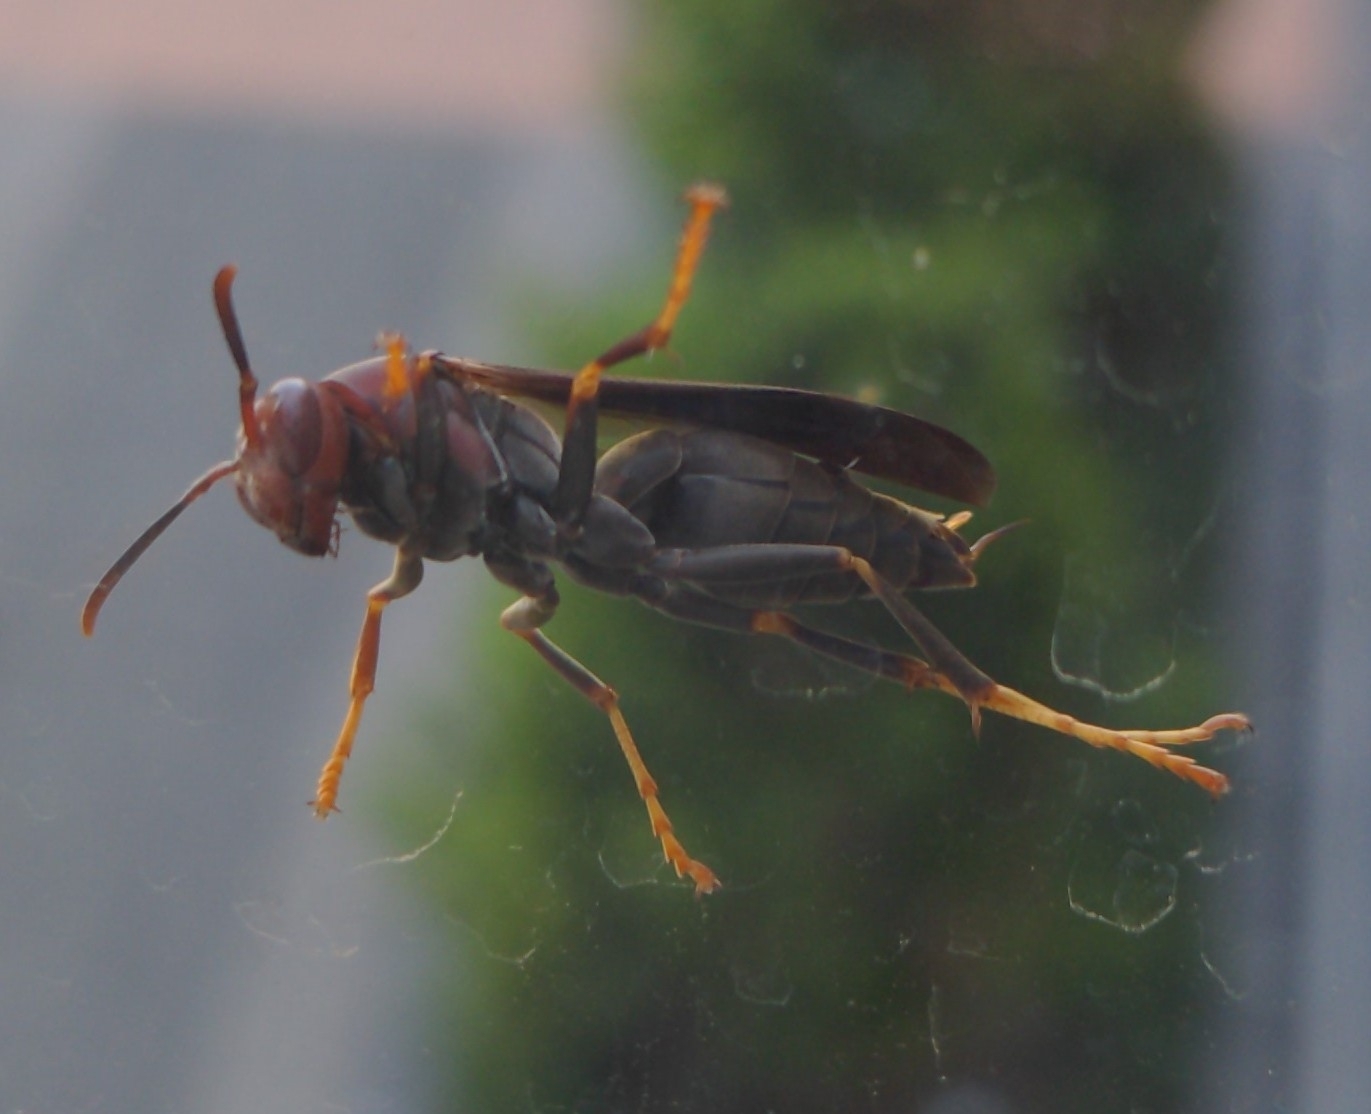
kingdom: Animalia
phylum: Arthropoda
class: Insecta
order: Hymenoptera
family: Eumenidae
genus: Polistes
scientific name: Polistes metricus
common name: Metric paper wasp
